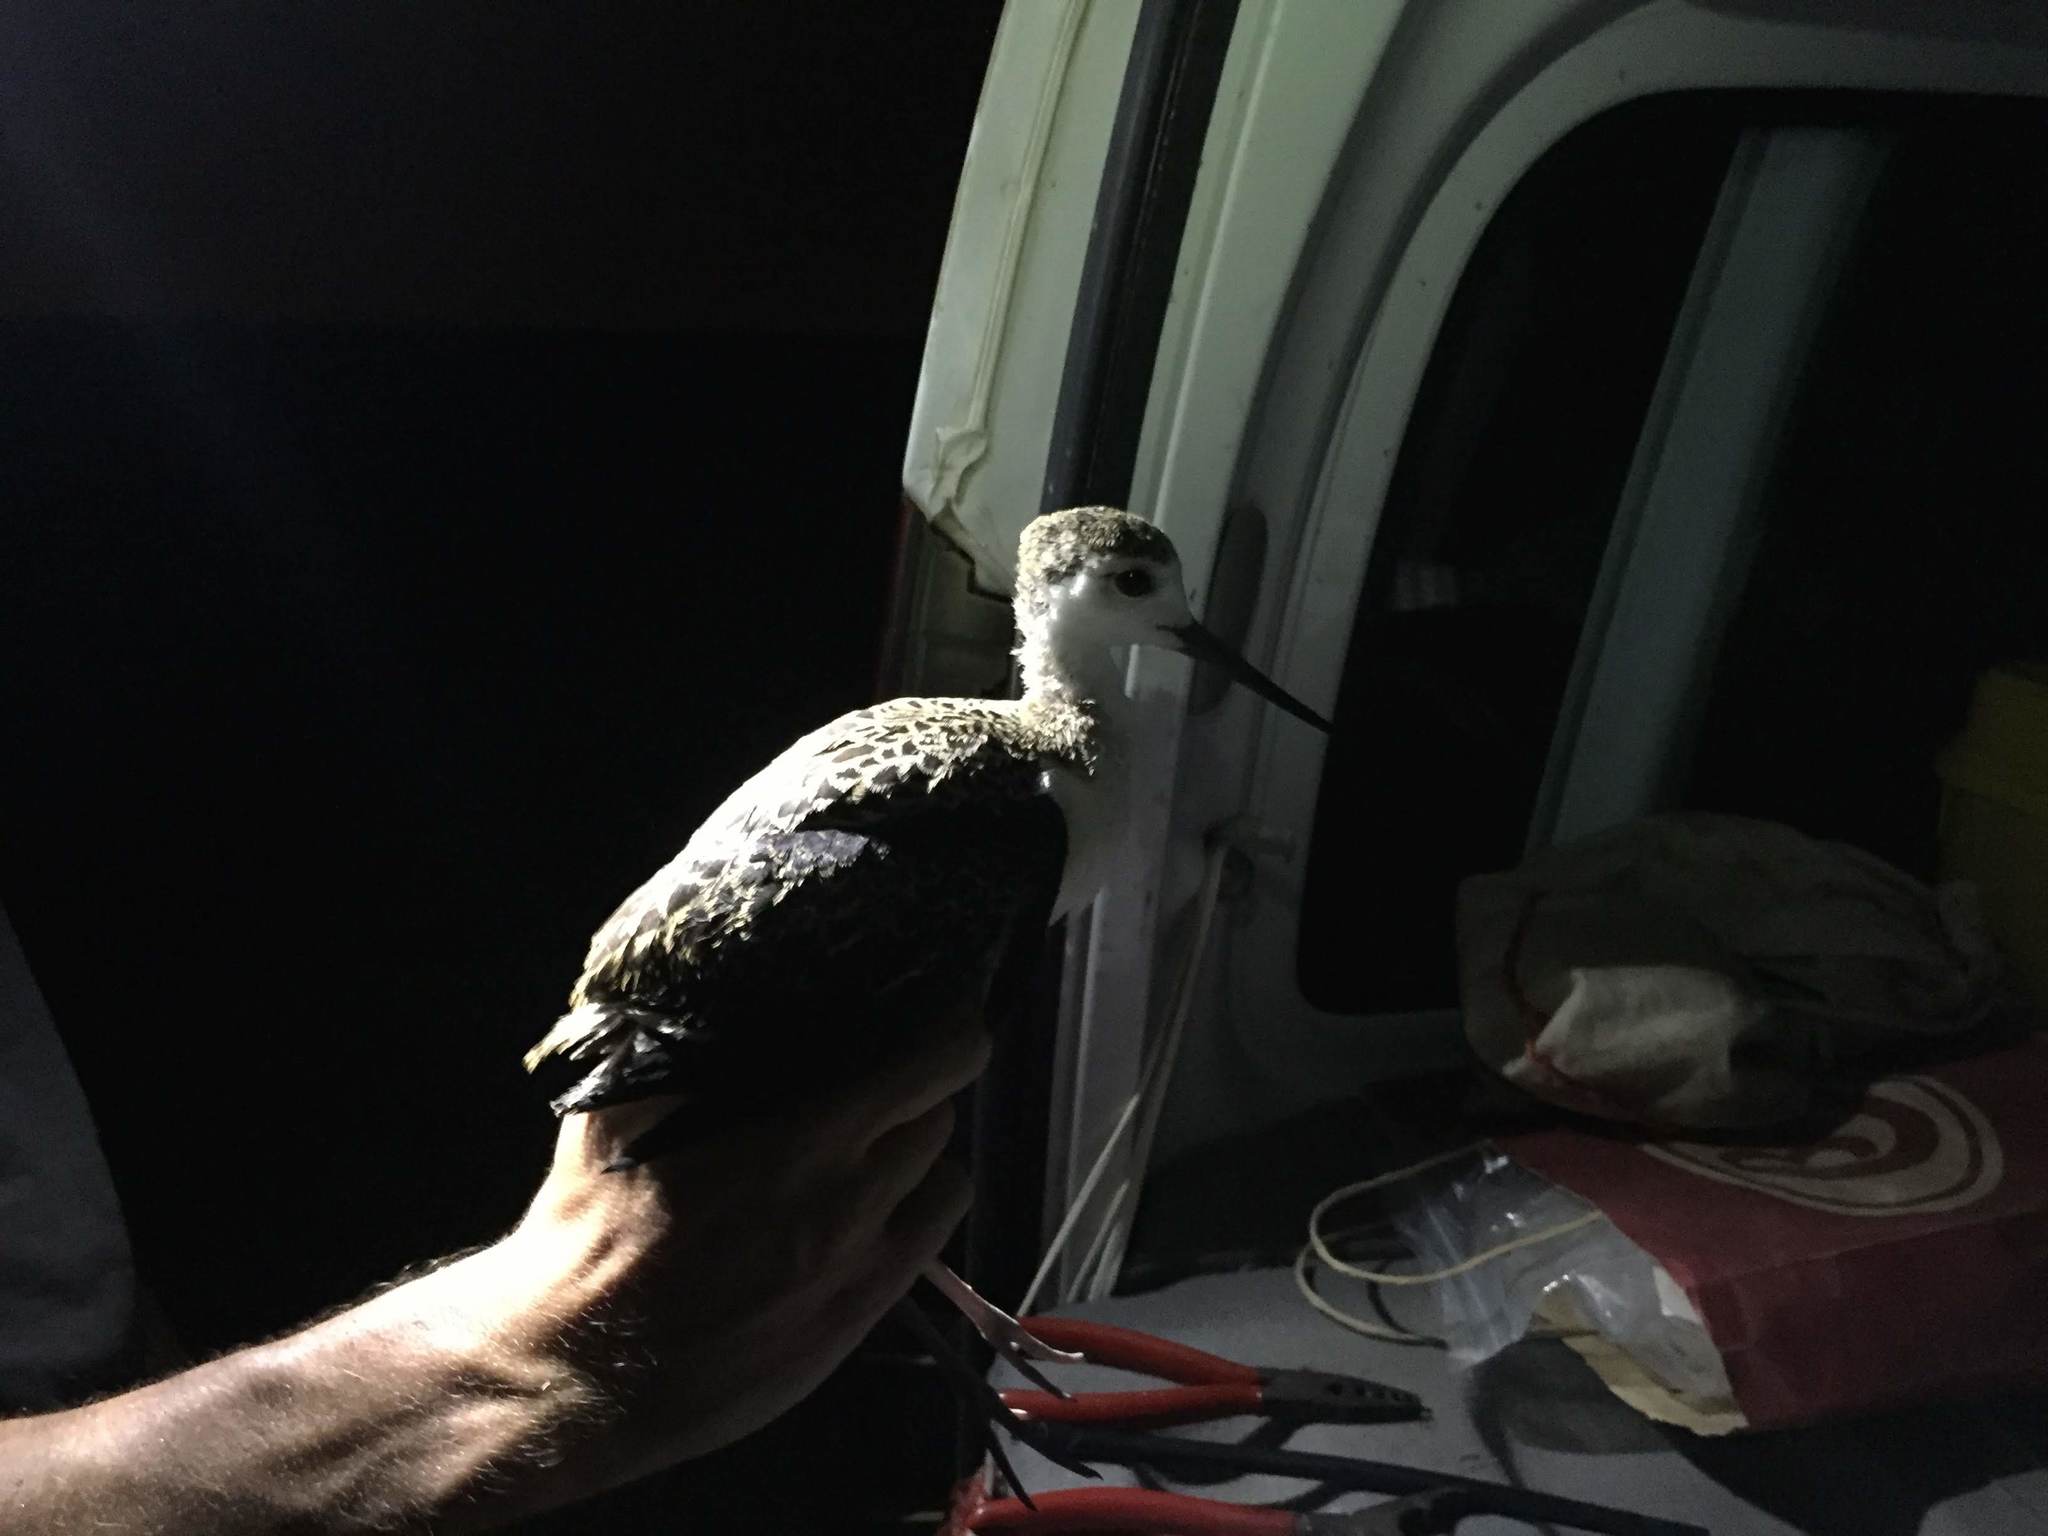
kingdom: Animalia
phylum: Chordata
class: Aves
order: Charadriiformes
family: Recurvirostridae
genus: Himantopus
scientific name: Himantopus himantopus
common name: Black-winged stilt
